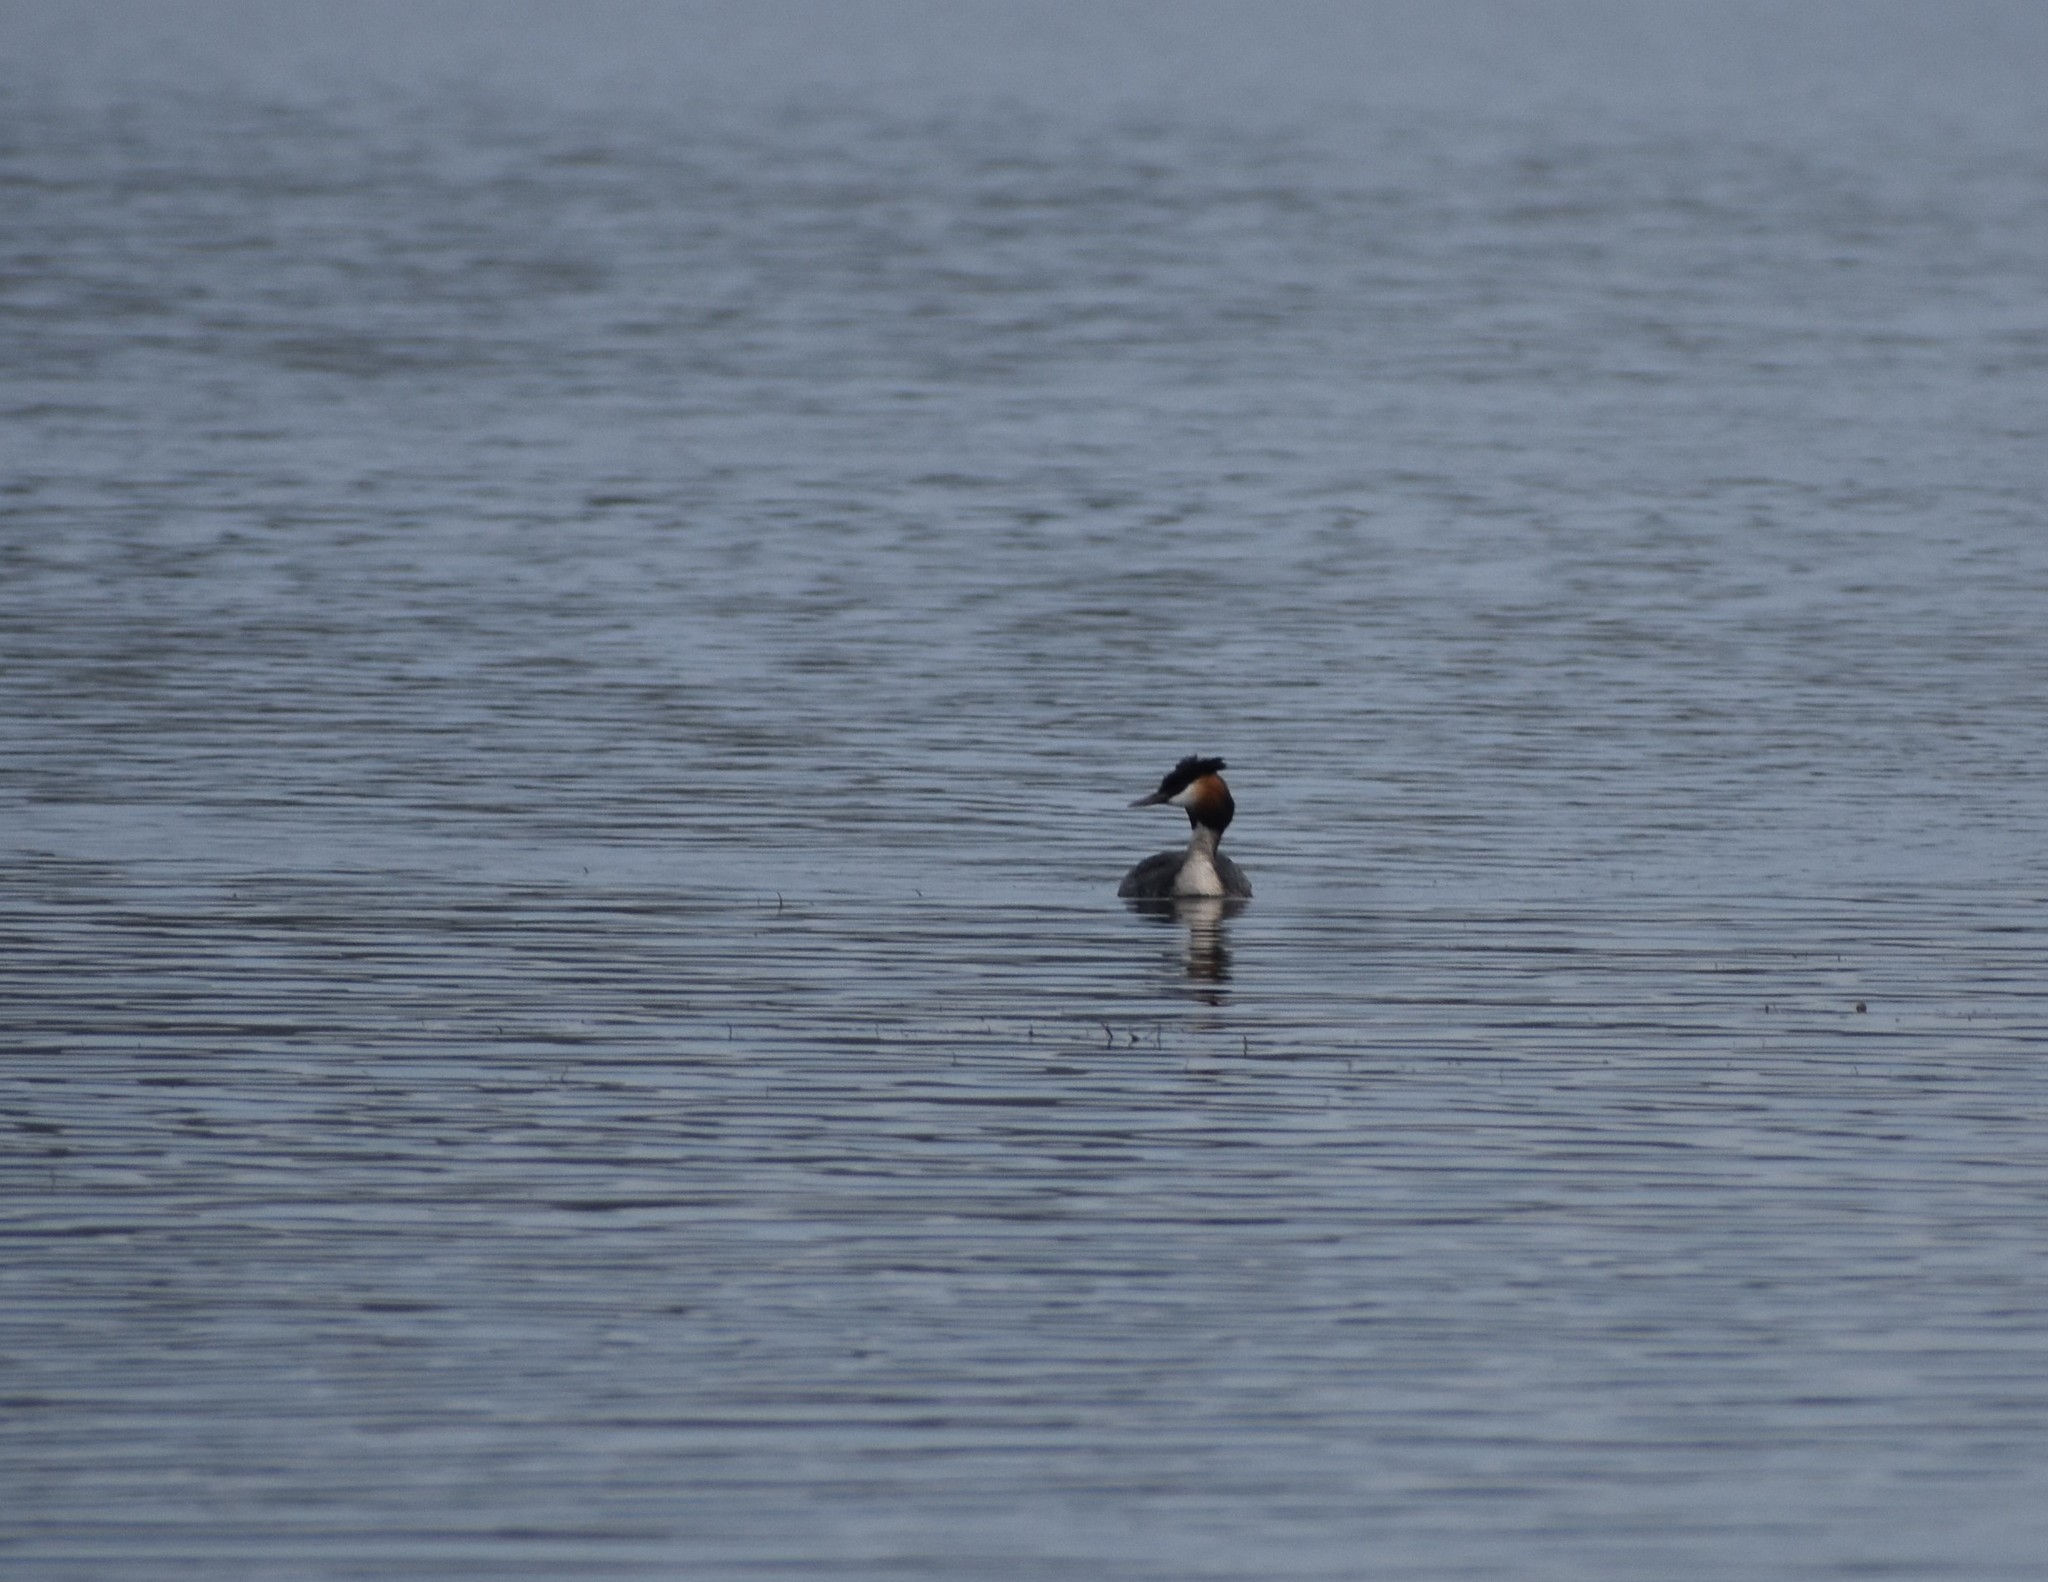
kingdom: Animalia
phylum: Chordata
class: Aves
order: Podicipediformes
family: Podicipedidae
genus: Podiceps
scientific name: Podiceps cristatus
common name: Great crested grebe
